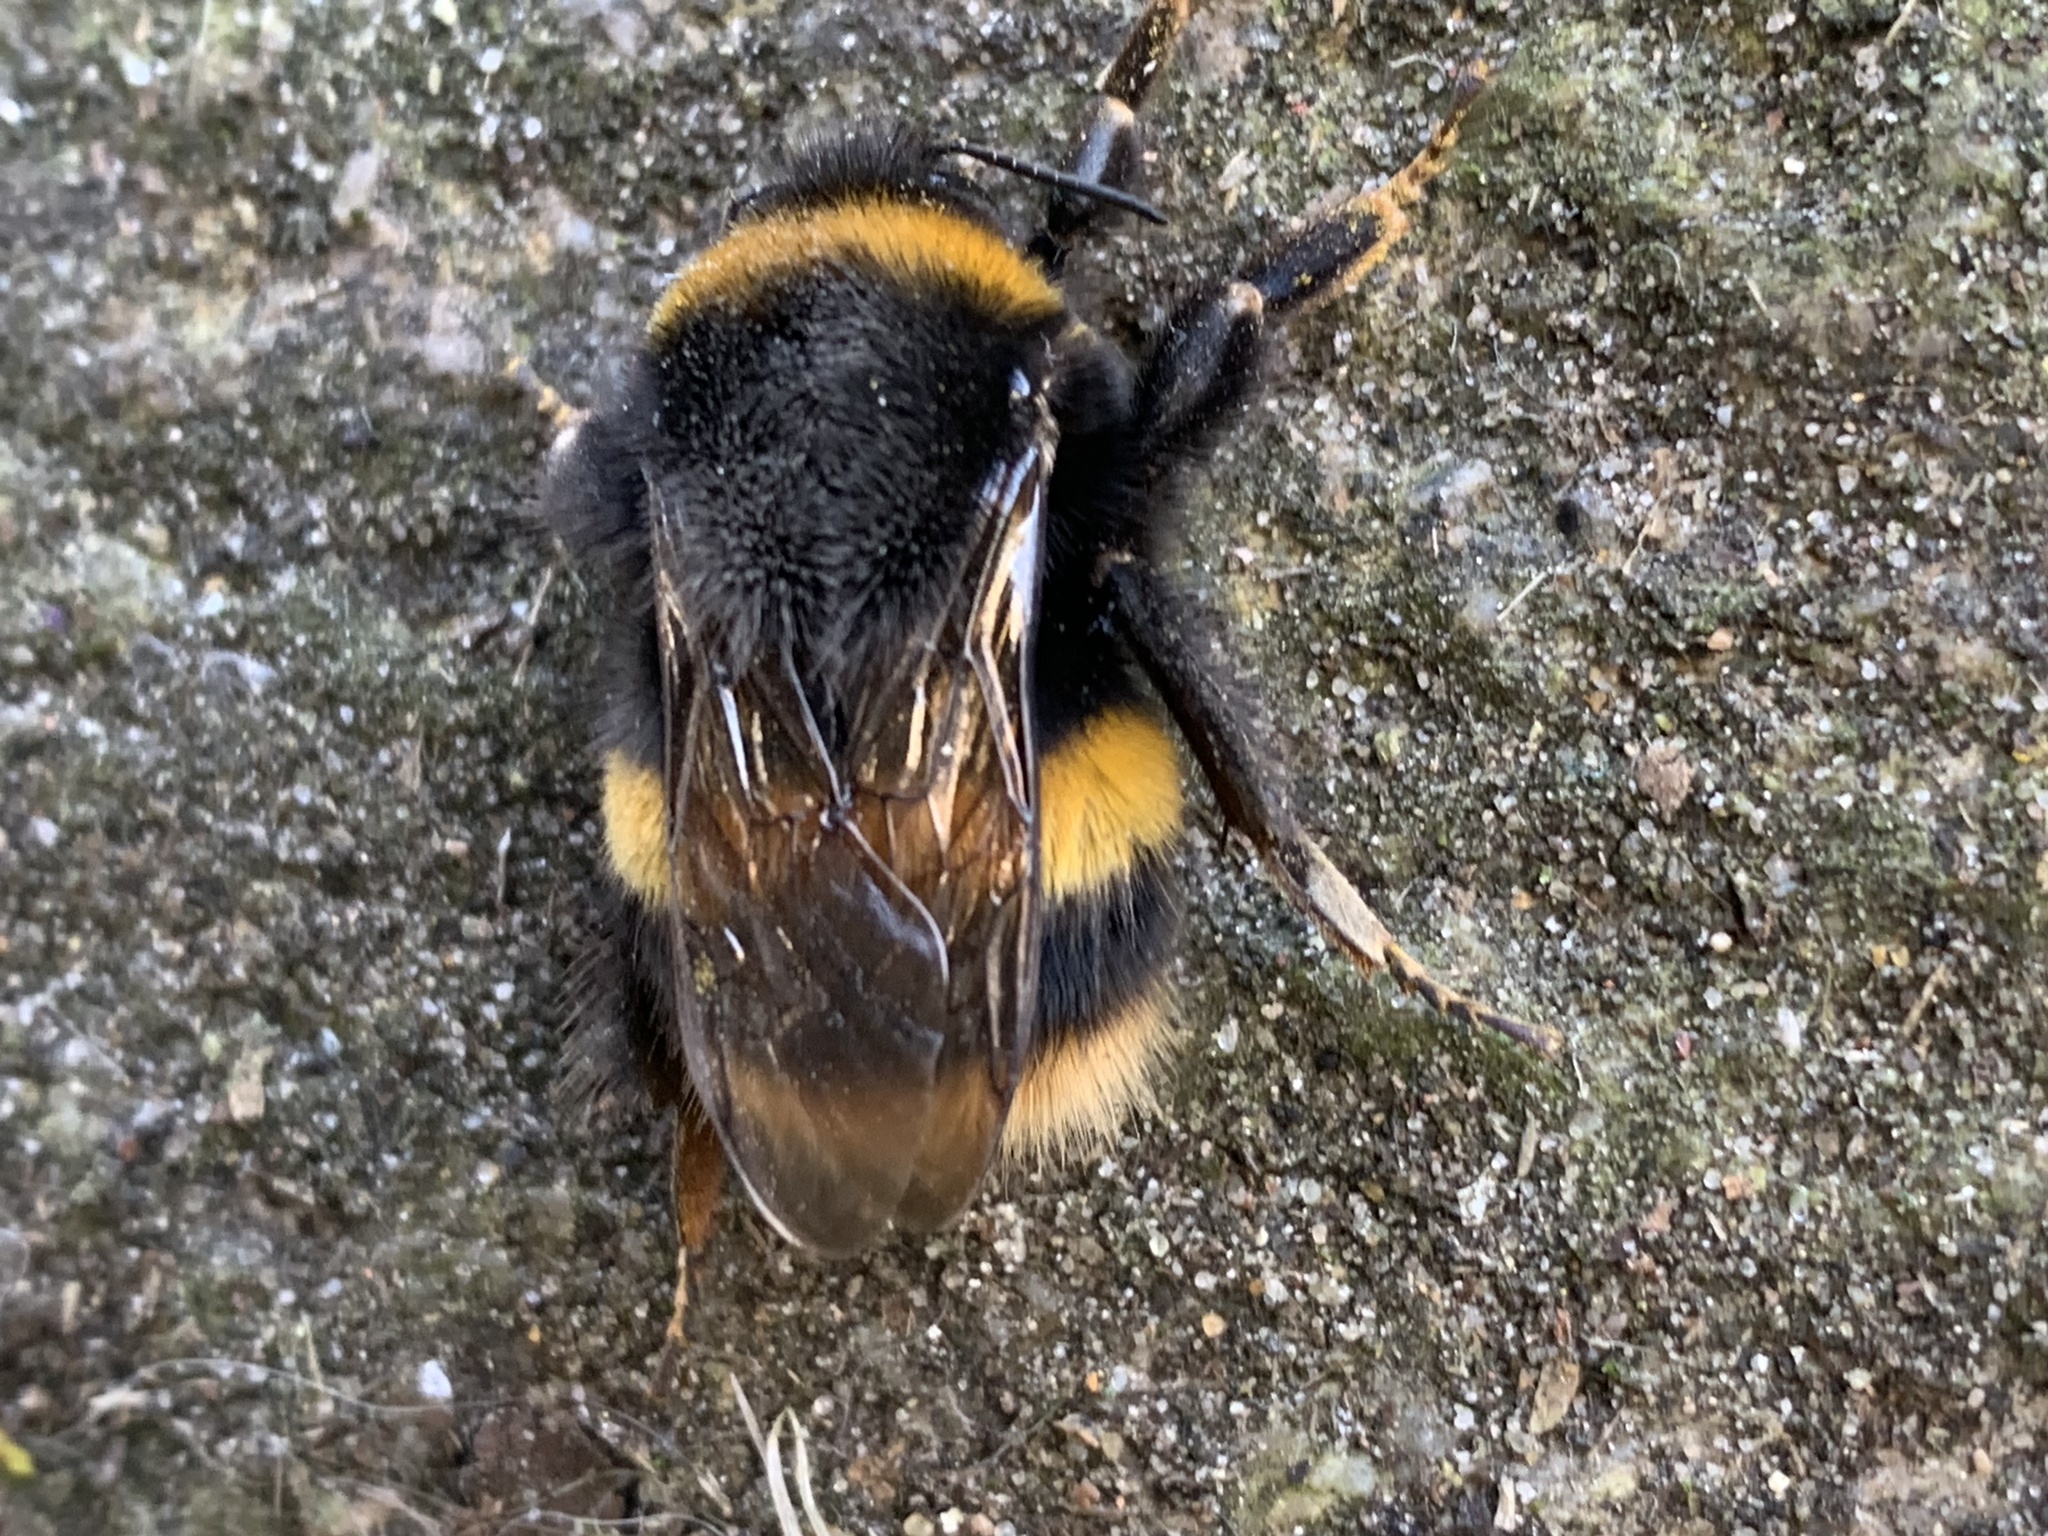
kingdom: Animalia
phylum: Arthropoda
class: Insecta
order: Hymenoptera
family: Apidae
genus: Bombus
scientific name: Bombus terrestris
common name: Buff-tailed bumblebee
